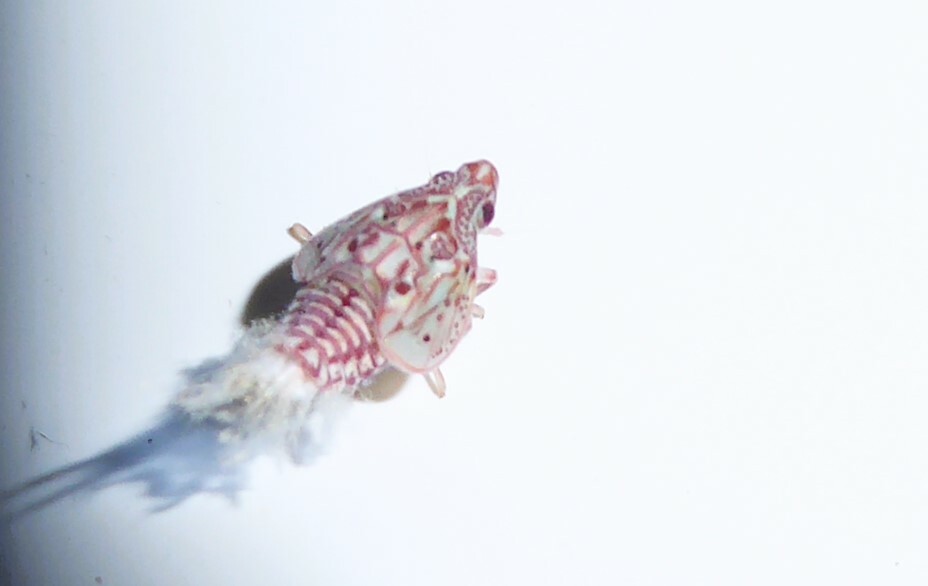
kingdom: Animalia
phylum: Arthropoda
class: Insecta
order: Hemiptera
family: Flatidae
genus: Siphanta
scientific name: Siphanta acuta
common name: Torpedo bug
